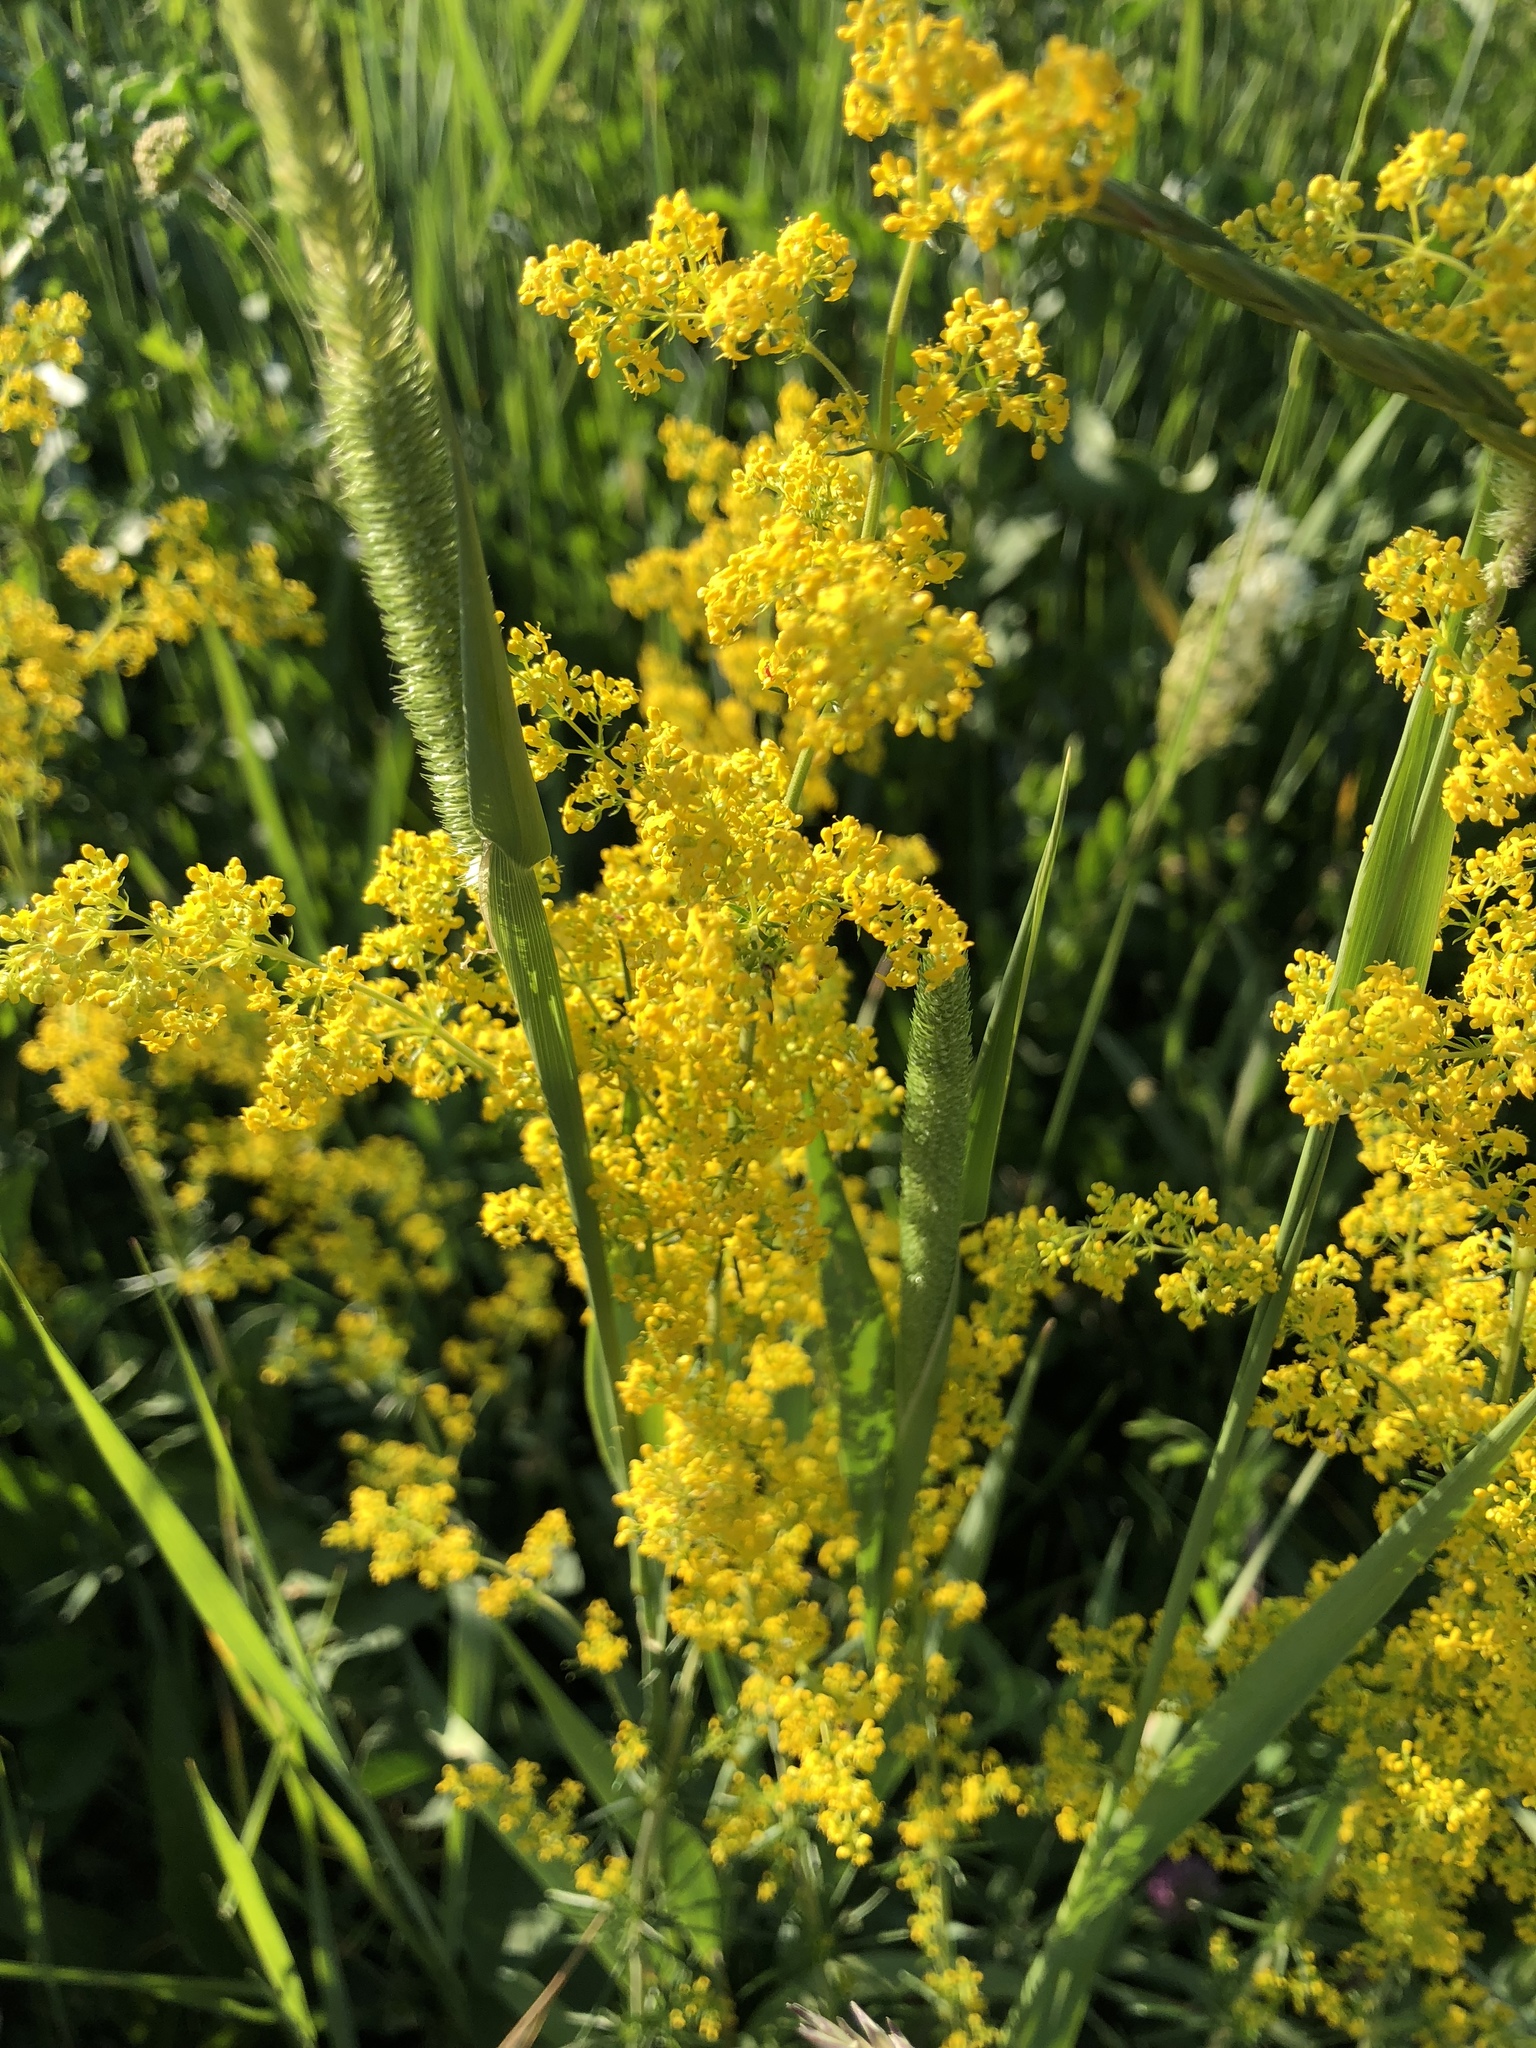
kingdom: Plantae
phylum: Tracheophyta
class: Magnoliopsida
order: Gentianales
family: Rubiaceae
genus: Galium
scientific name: Galium verum
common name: Lady's bedstraw
